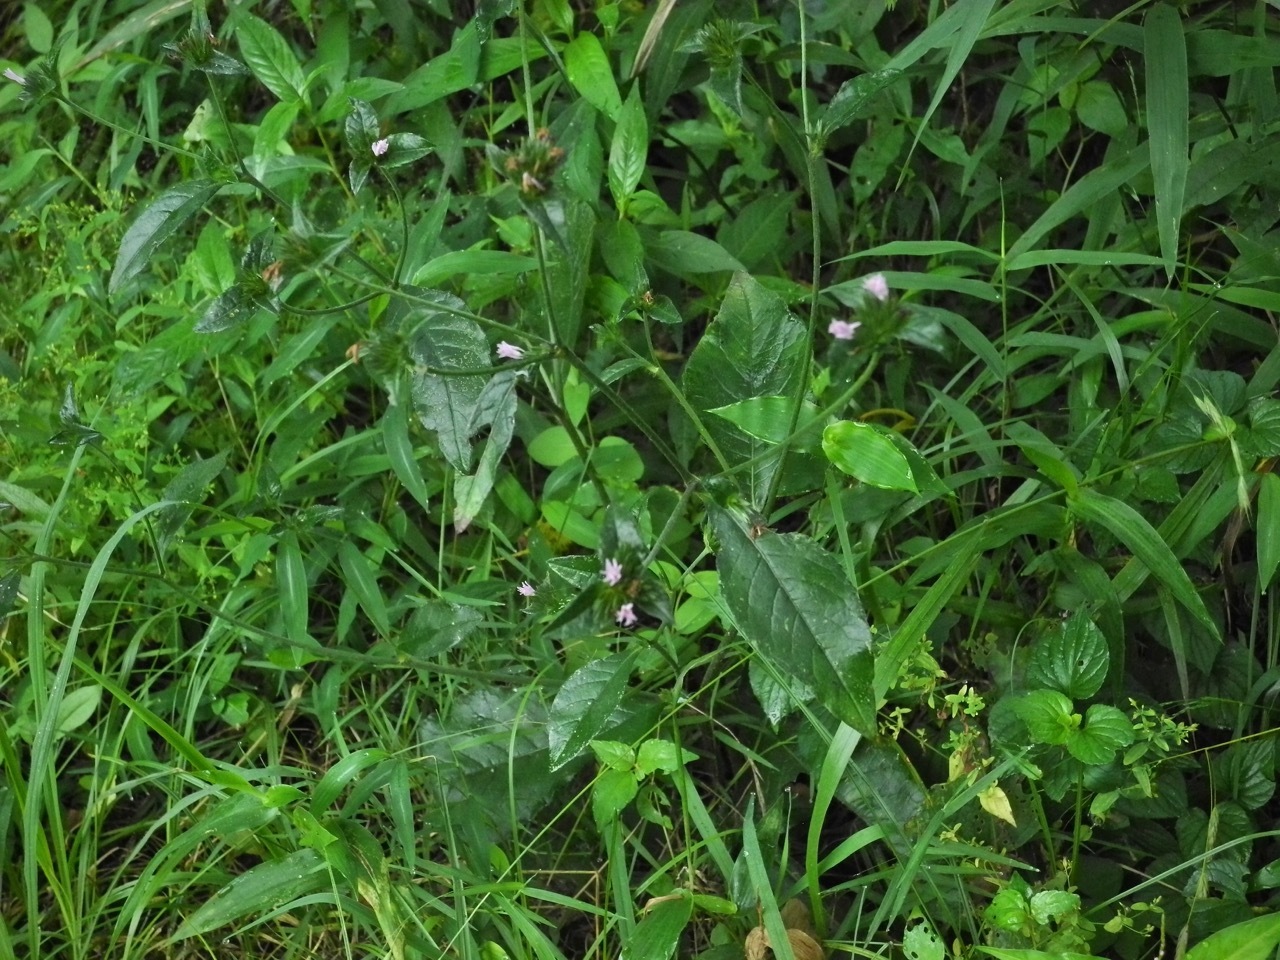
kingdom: Plantae
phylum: Tracheophyta
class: Magnoliopsida
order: Asterales
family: Asteraceae
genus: Elephantopus
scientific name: Elephantopus carolinianus
